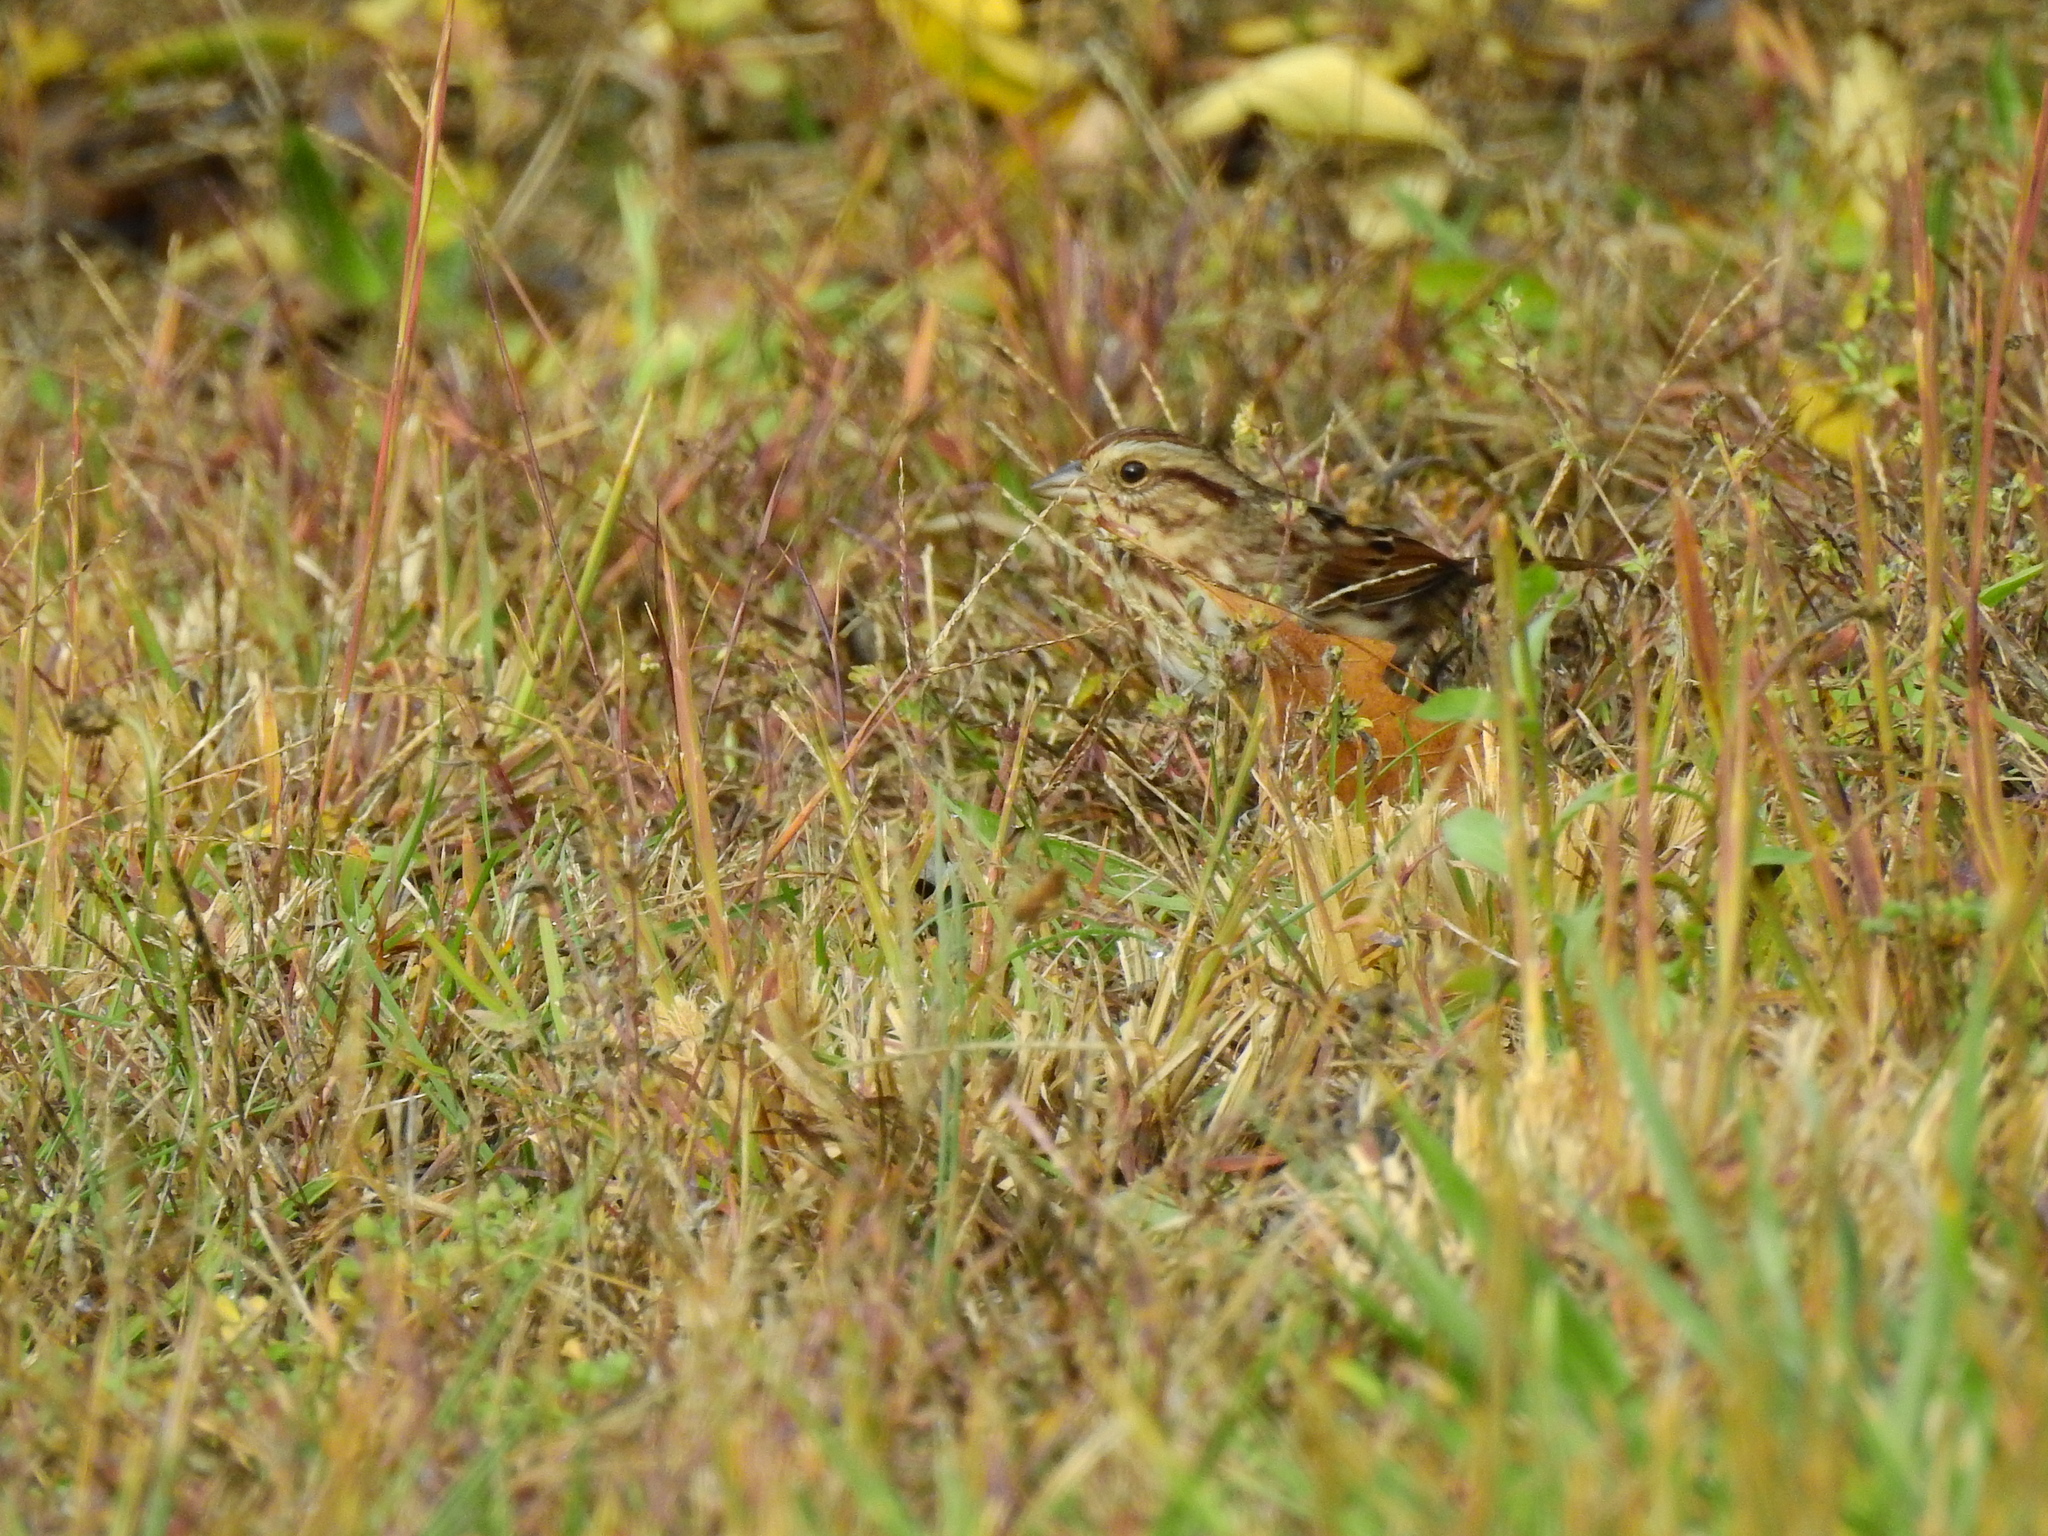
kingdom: Animalia
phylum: Chordata
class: Aves
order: Passeriformes
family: Passerellidae
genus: Melospiza
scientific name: Melospiza melodia
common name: Song sparrow
